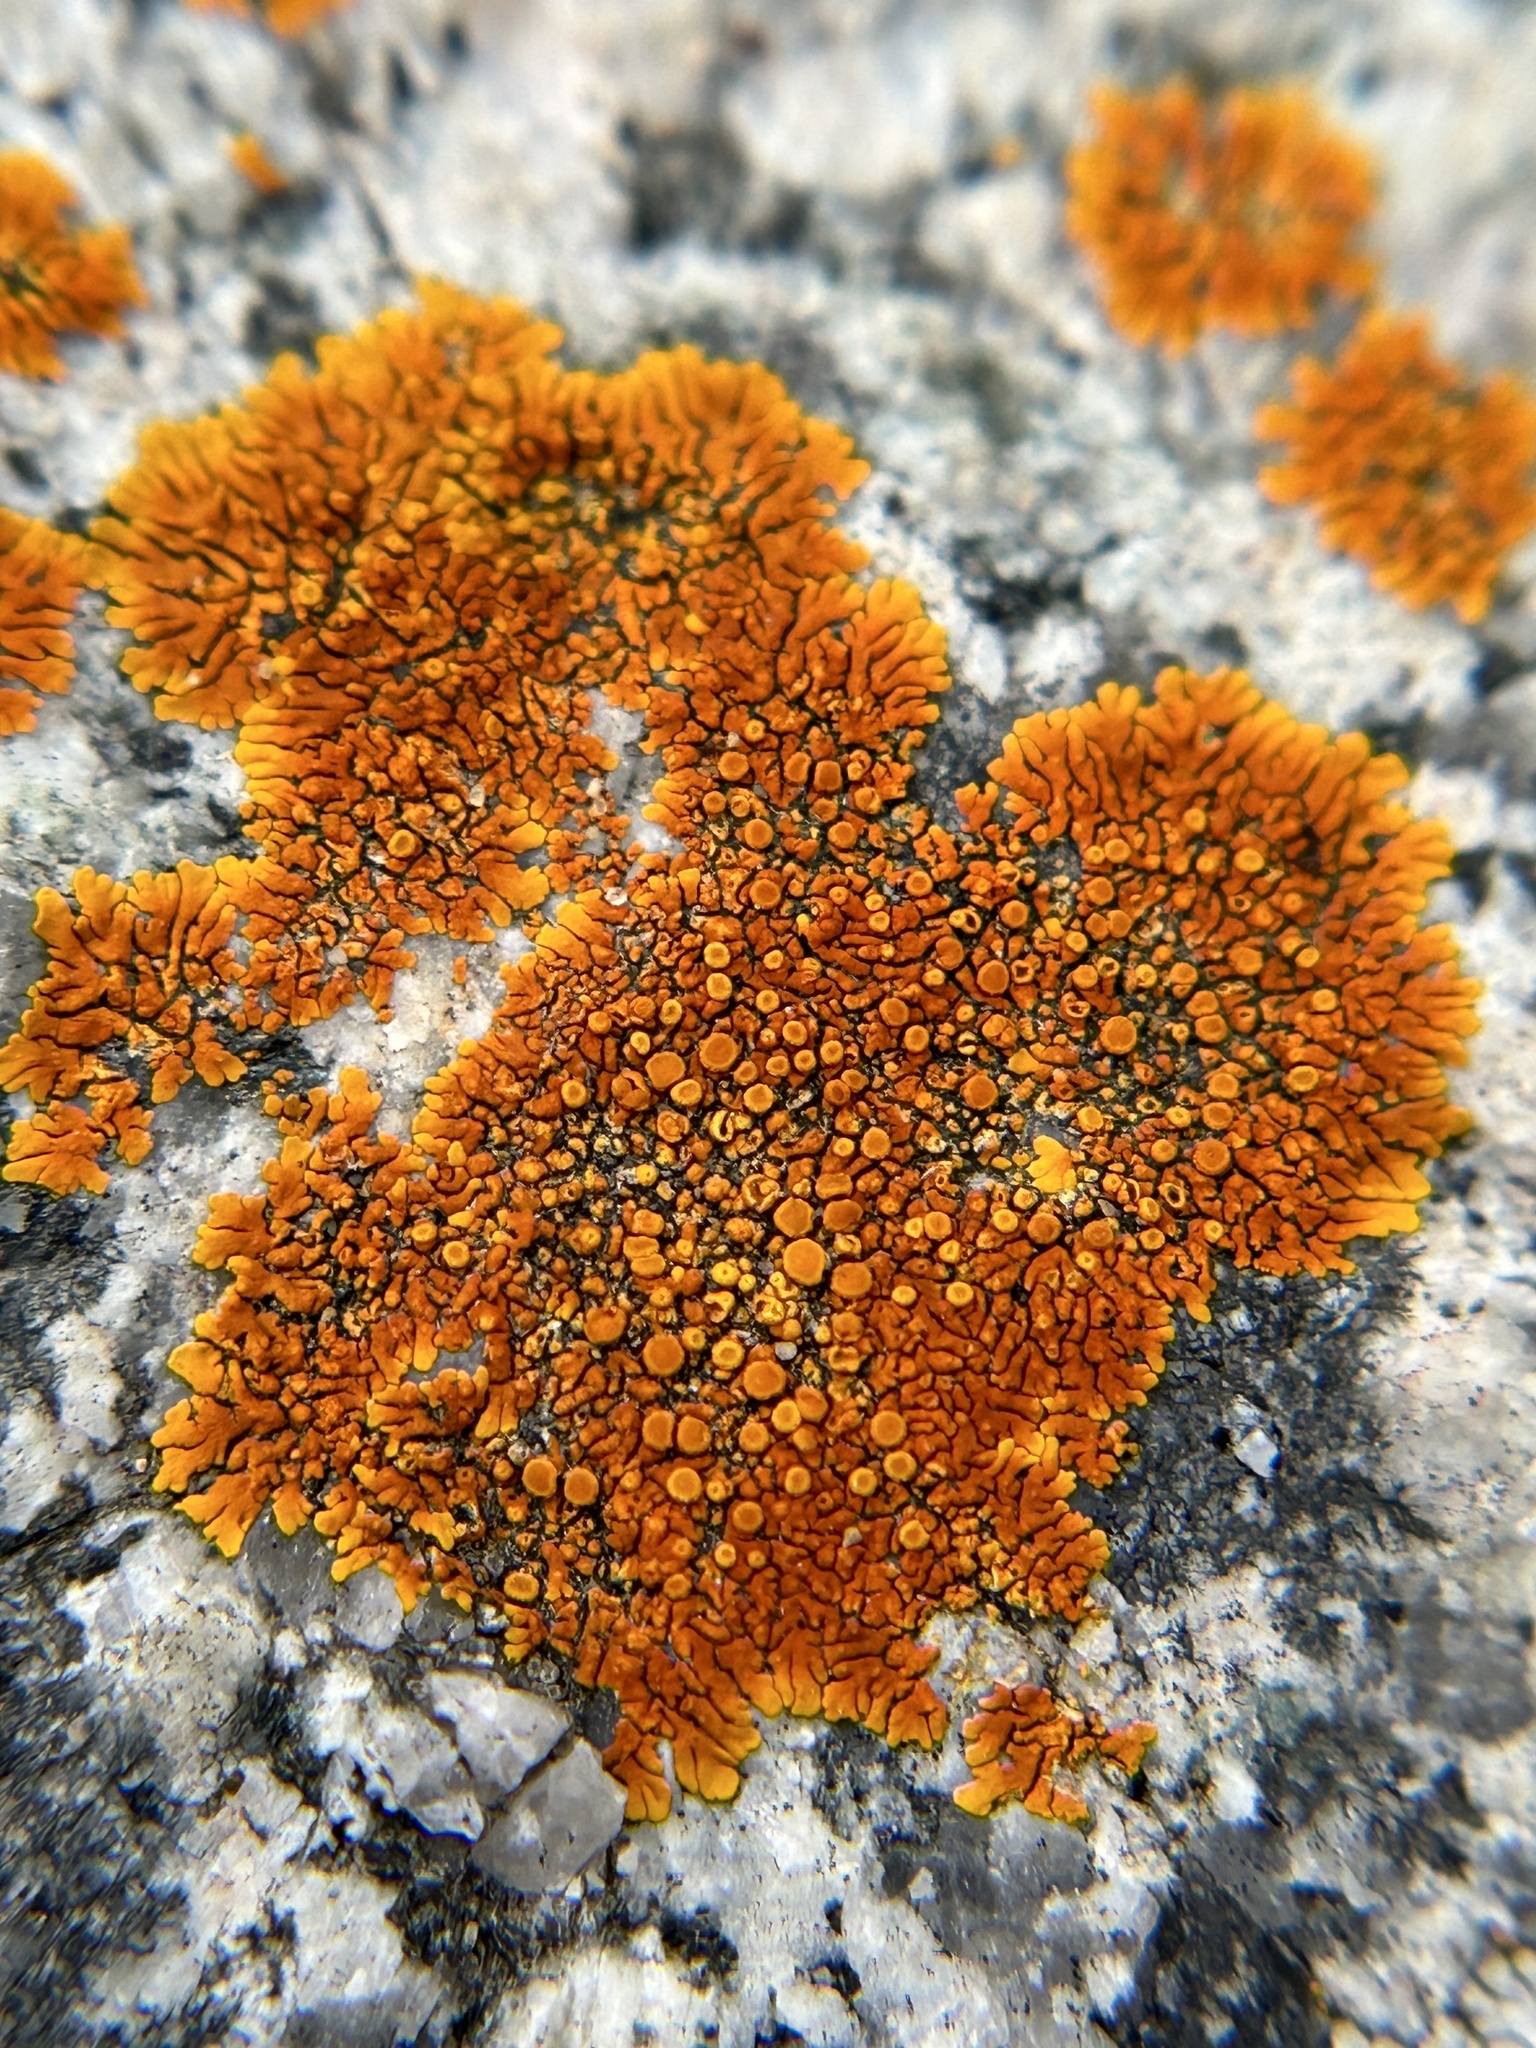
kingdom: Fungi
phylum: Ascomycota
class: Lecanoromycetes
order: Teloschistales
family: Teloschistaceae
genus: Igneoplaca
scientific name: Igneoplaca ignea
